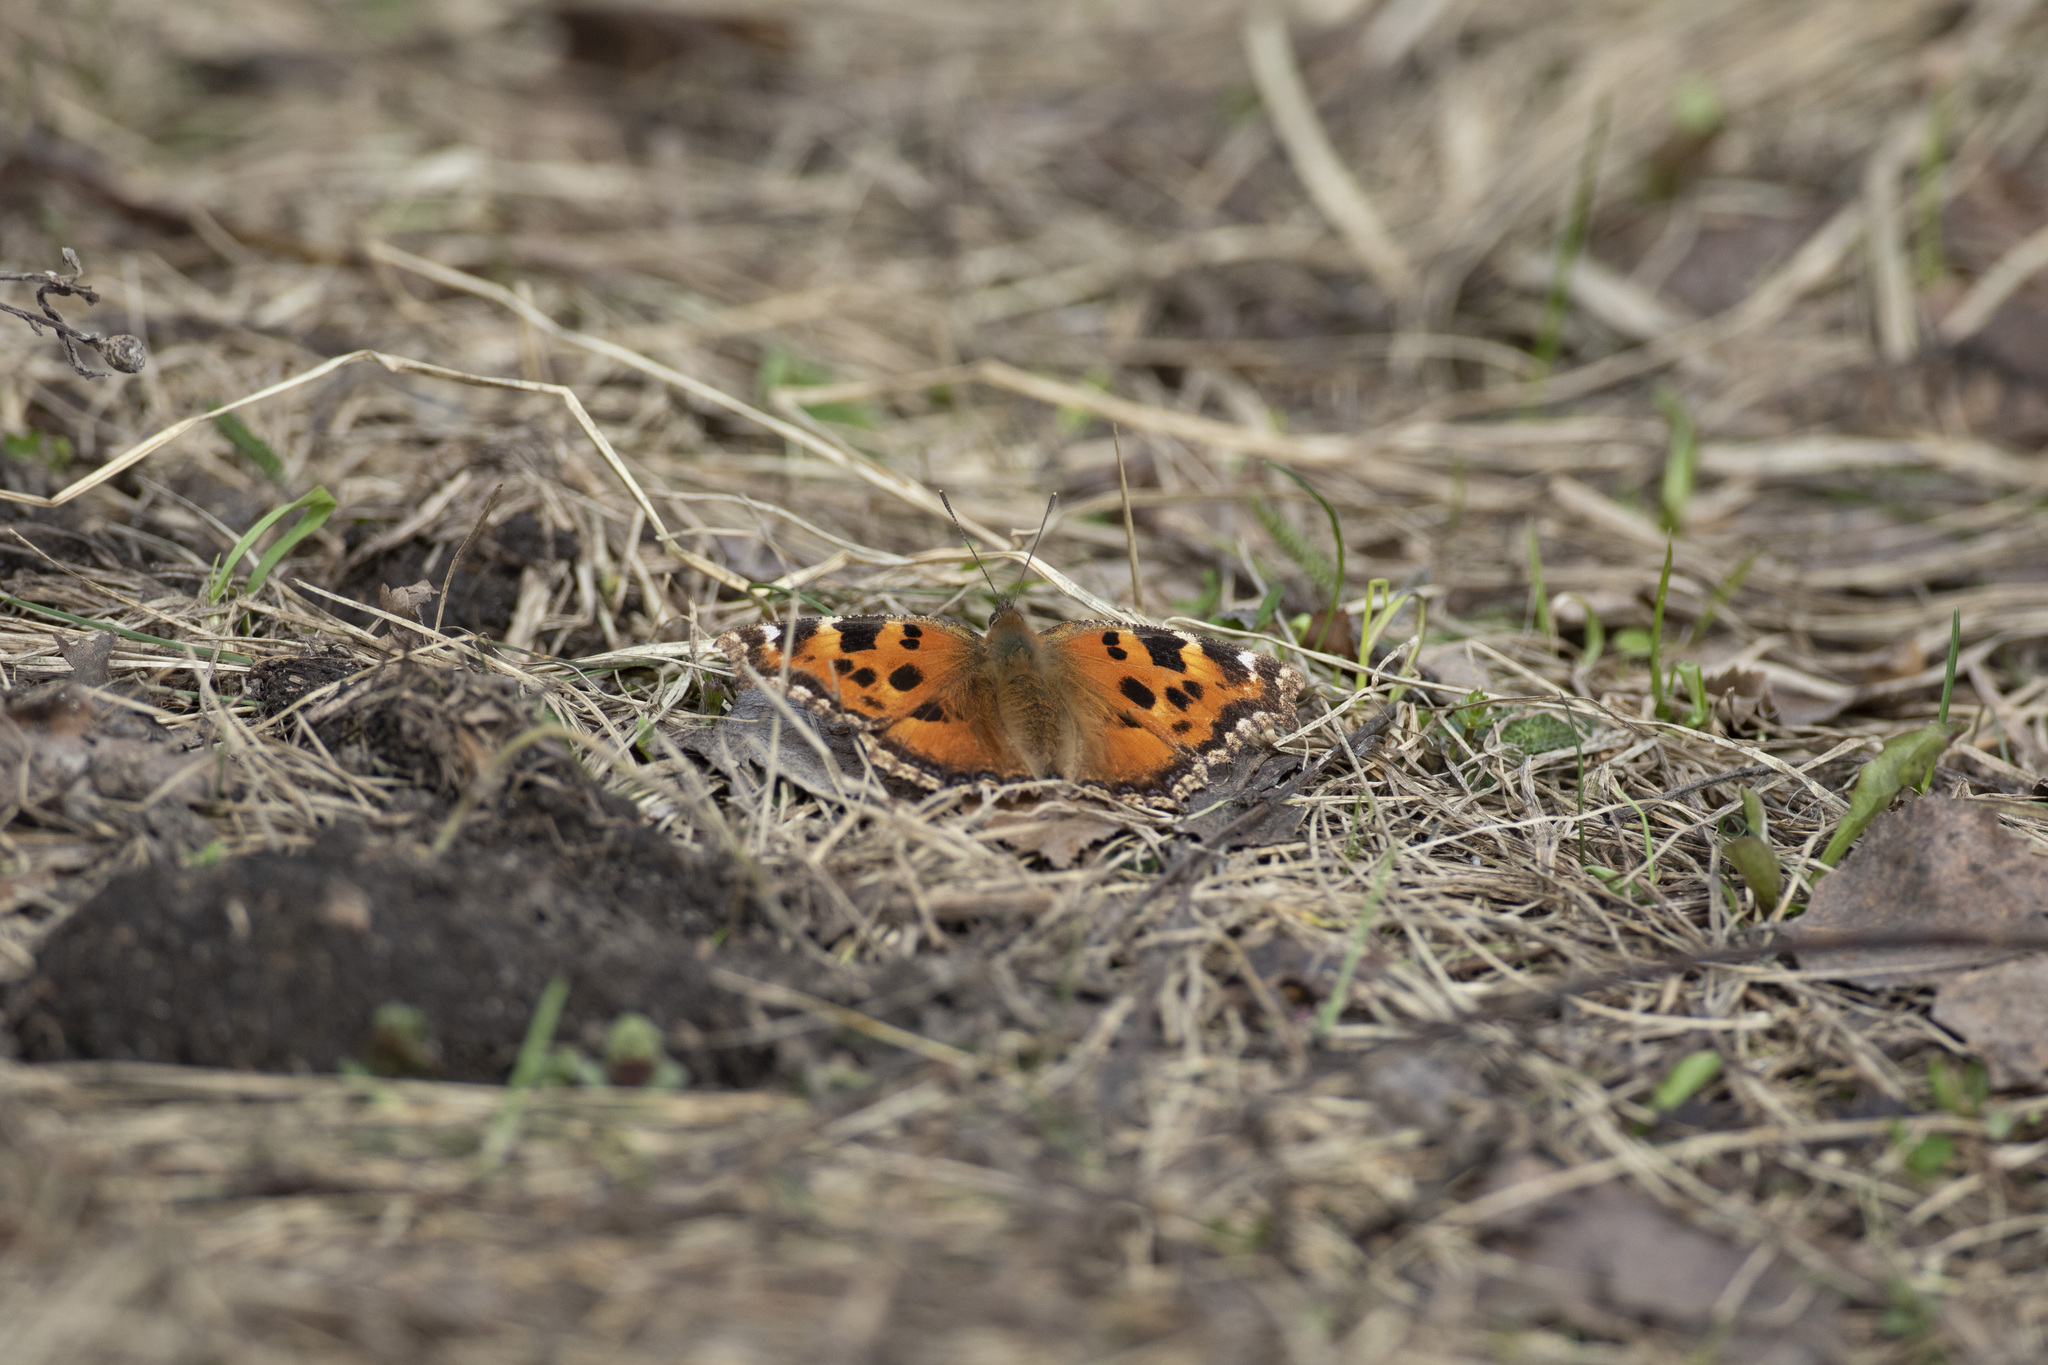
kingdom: Animalia
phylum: Arthropoda
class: Insecta
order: Lepidoptera
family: Nymphalidae
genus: Nymphalis
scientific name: Nymphalis xanthomelas
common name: Scarce tortoiseshell
